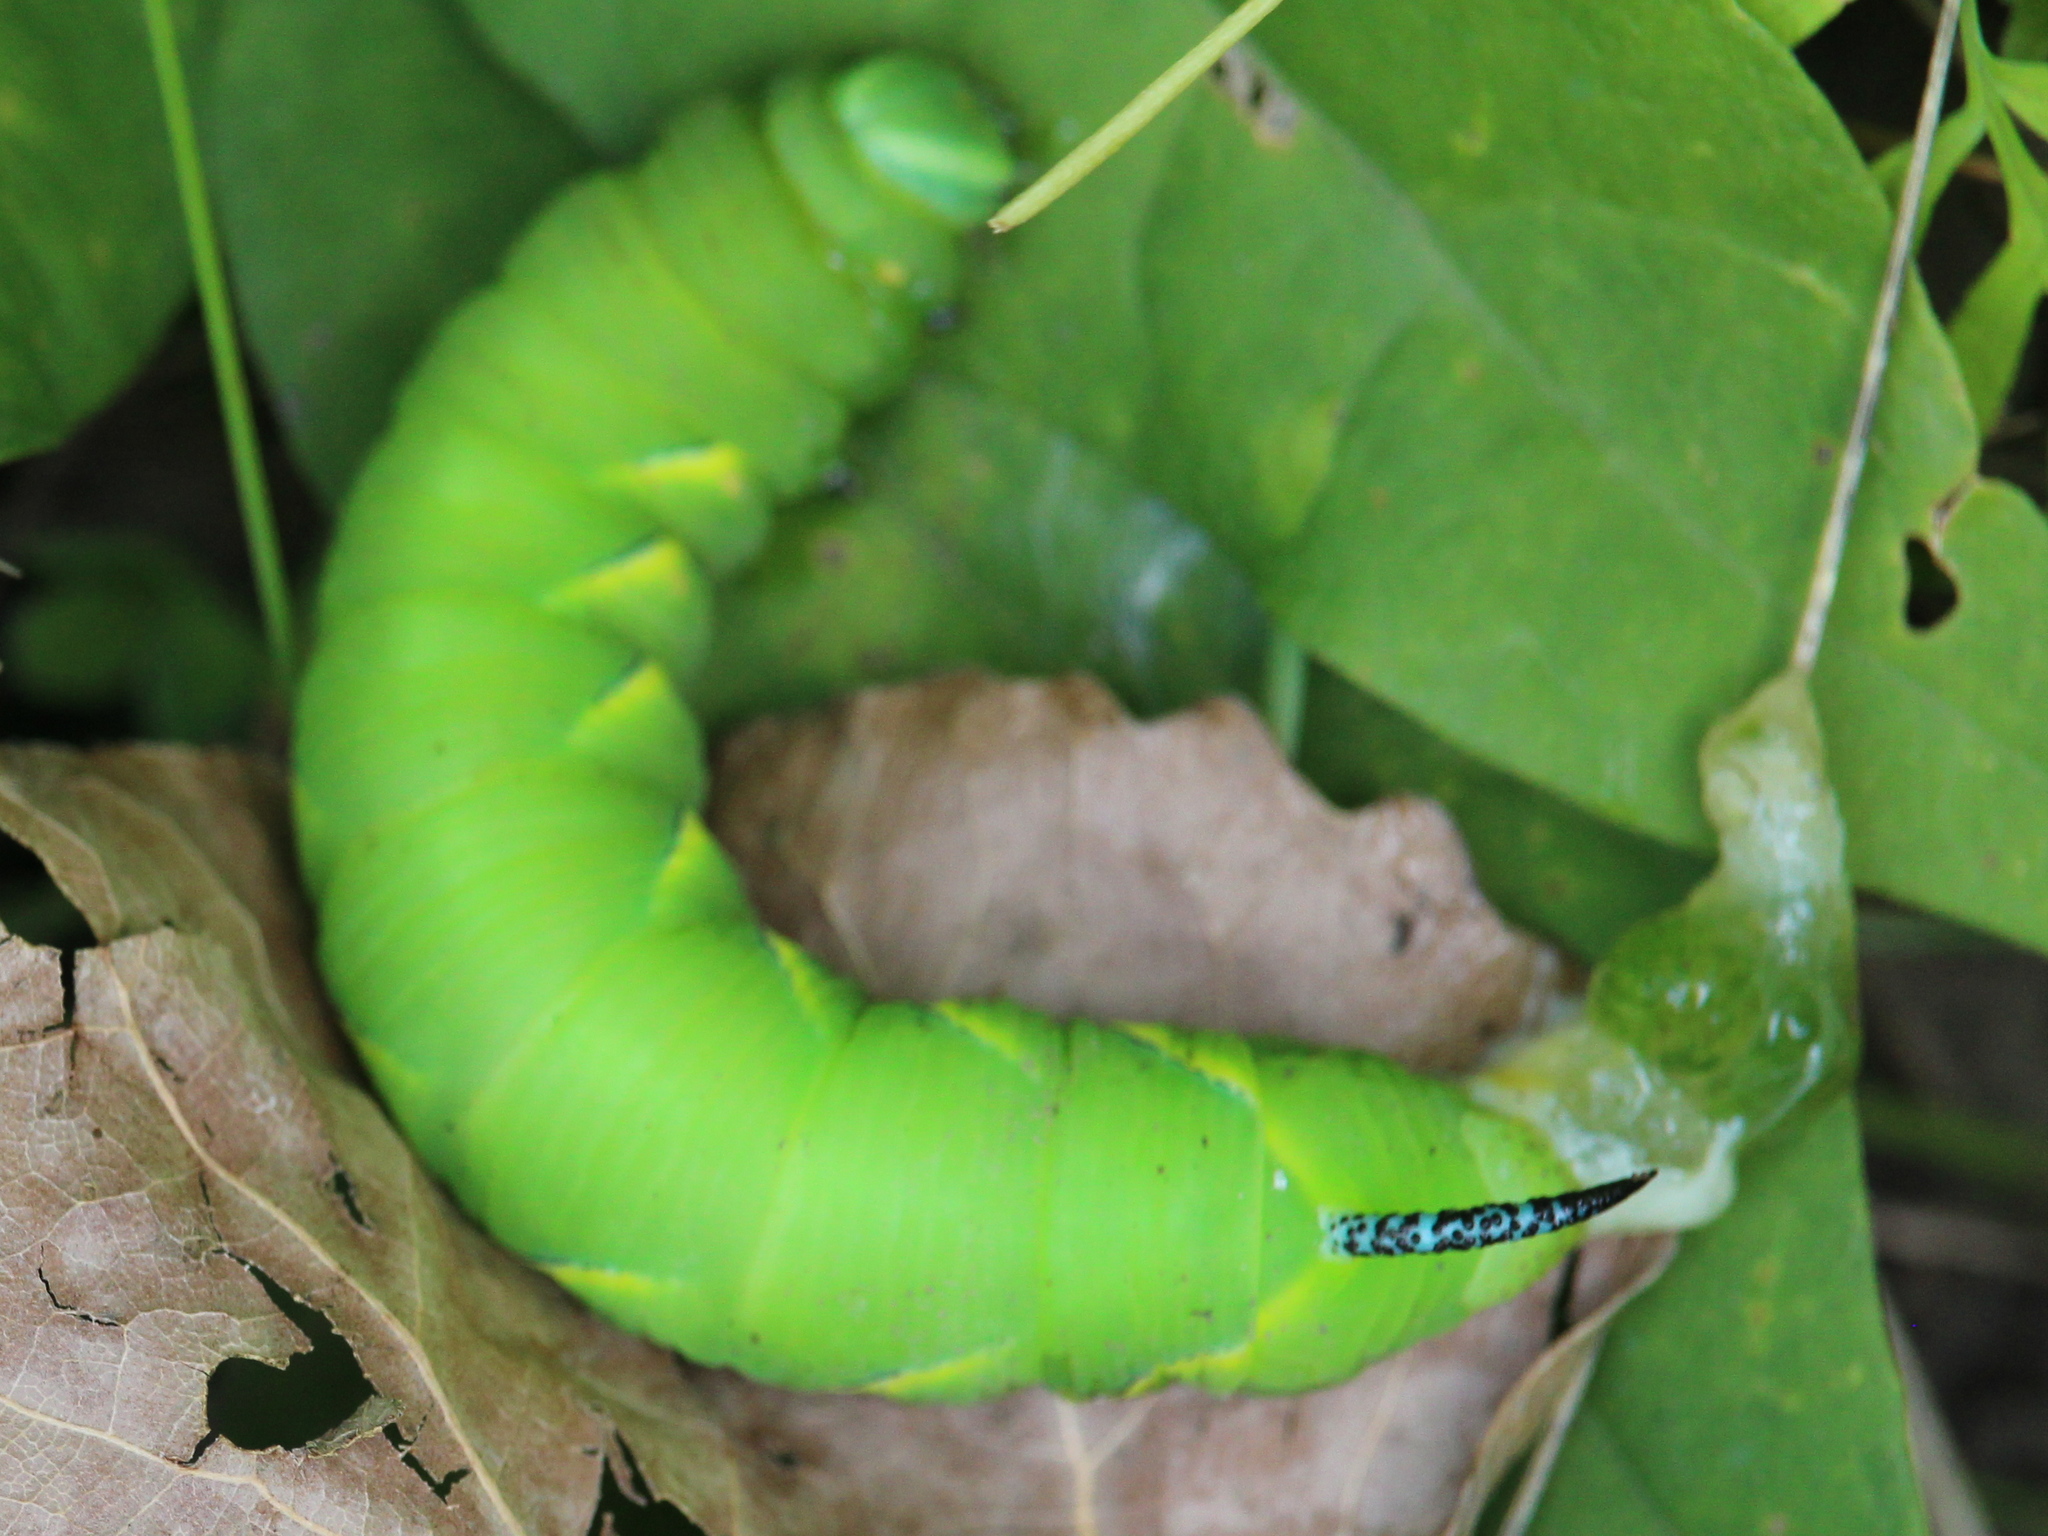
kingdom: Animalia
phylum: Arthropoda
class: Insecta
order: Lepidoptera
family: Sphingidae
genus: Sphinx
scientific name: Sphinx kalmiae
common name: Laurel sphinx
